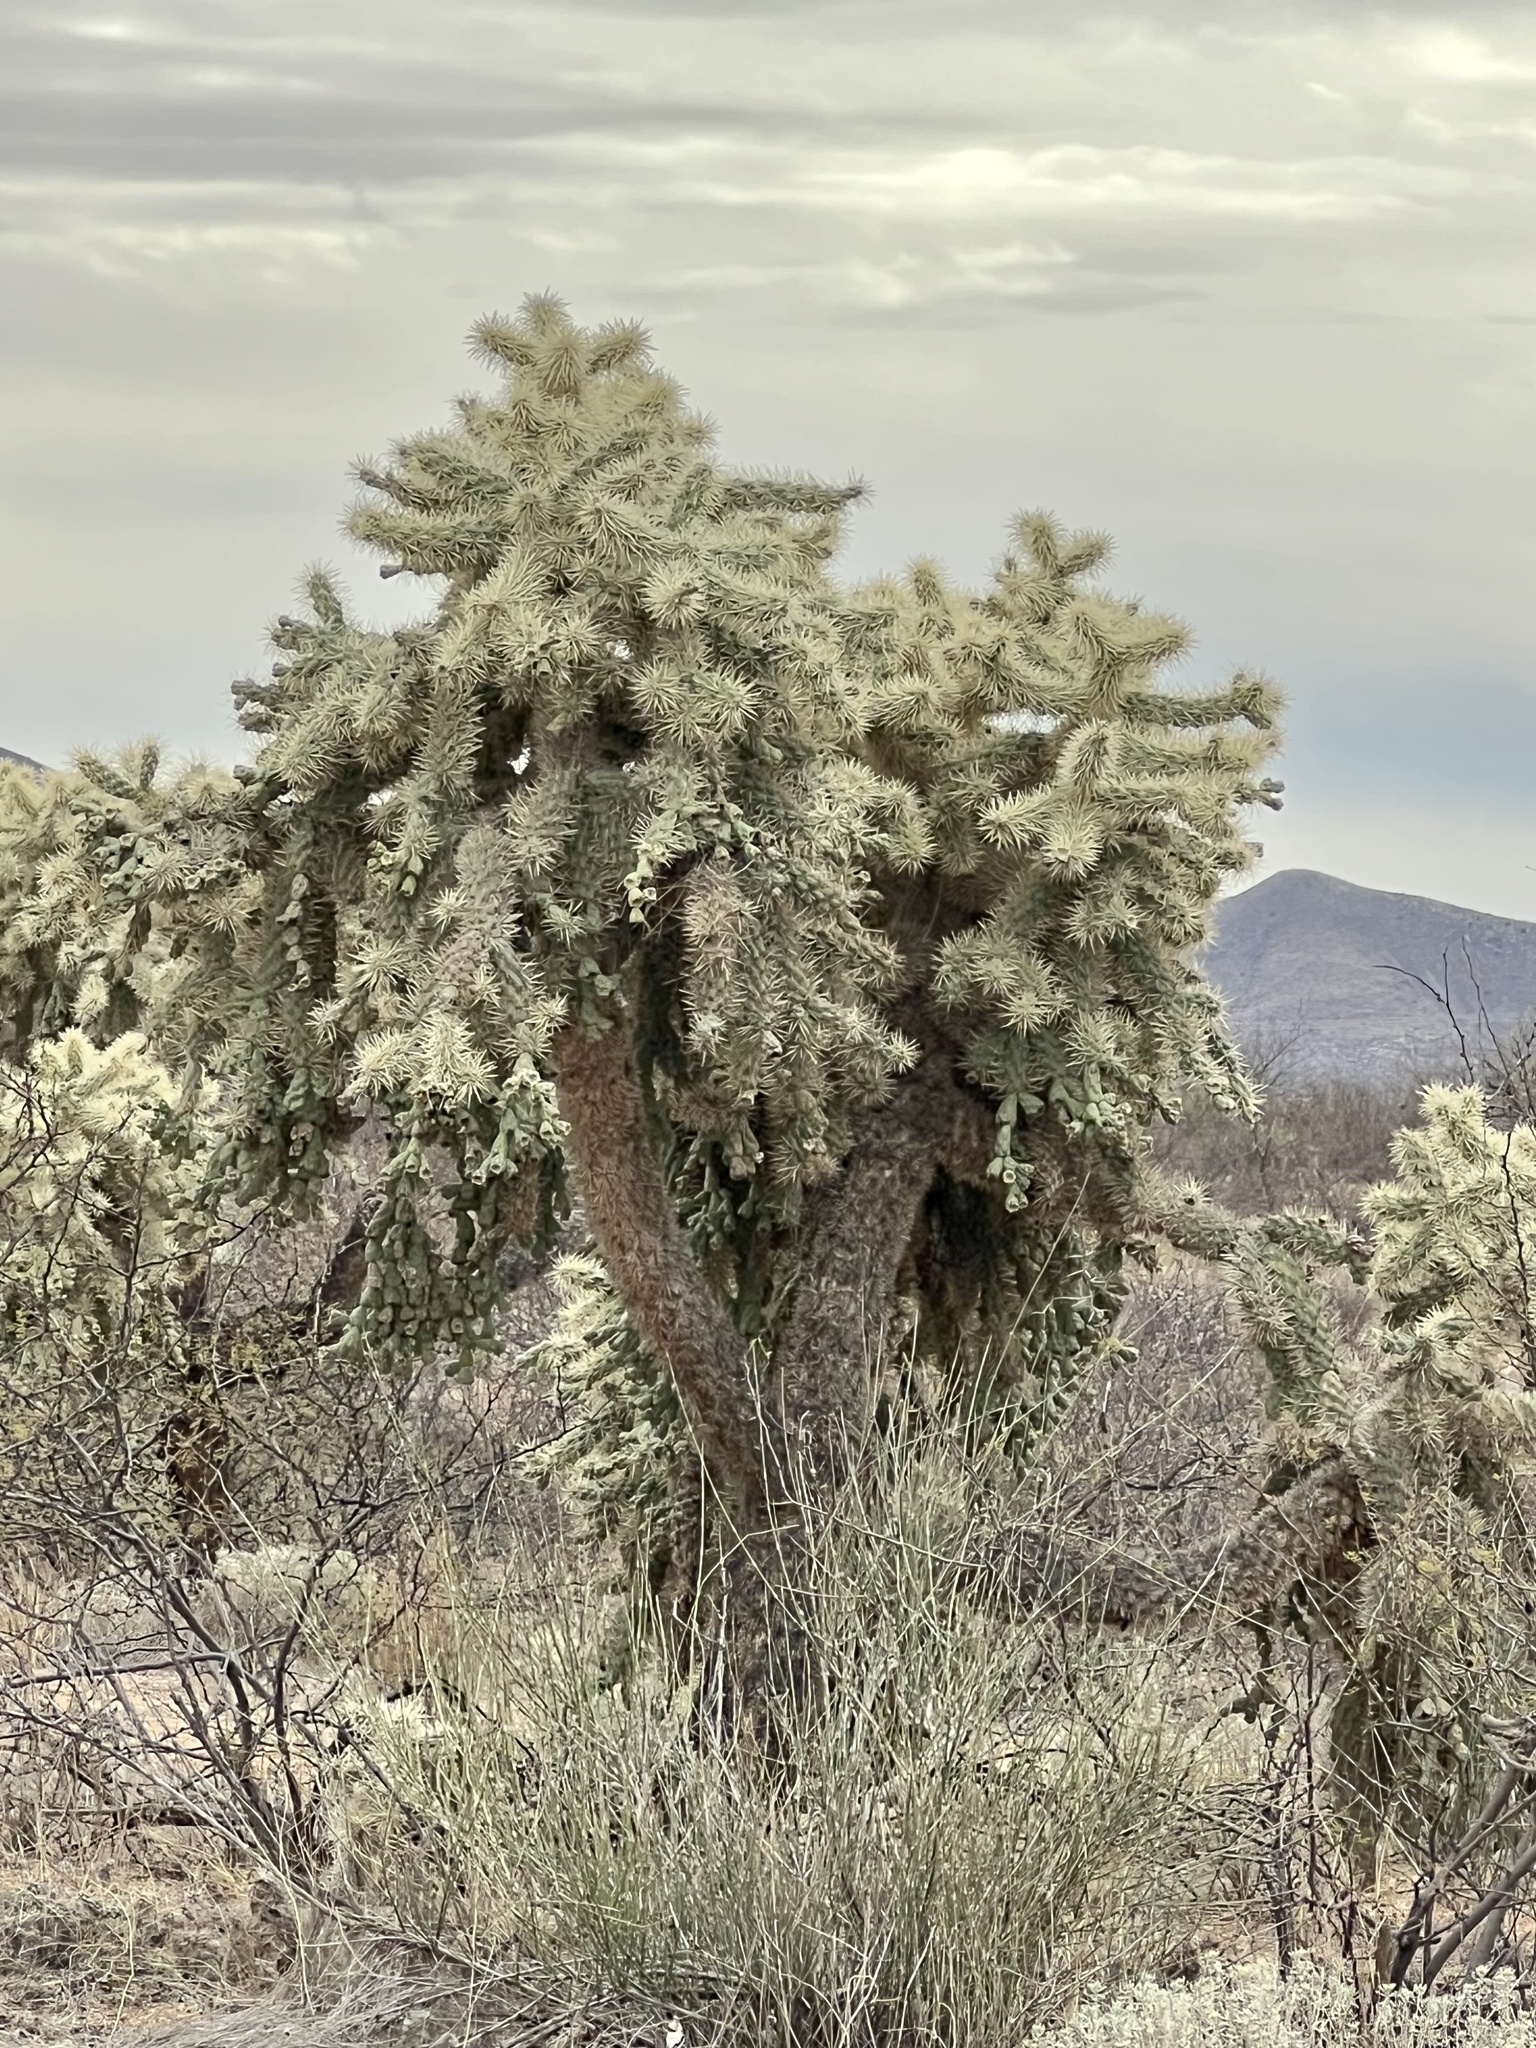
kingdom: Plantae
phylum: Tracheophyta
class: Magnoliopsida
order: Caryophyllales
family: Cactaceae
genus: Cylindropuntia
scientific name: Cylindropuntia fulgida
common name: Jumping cholla
